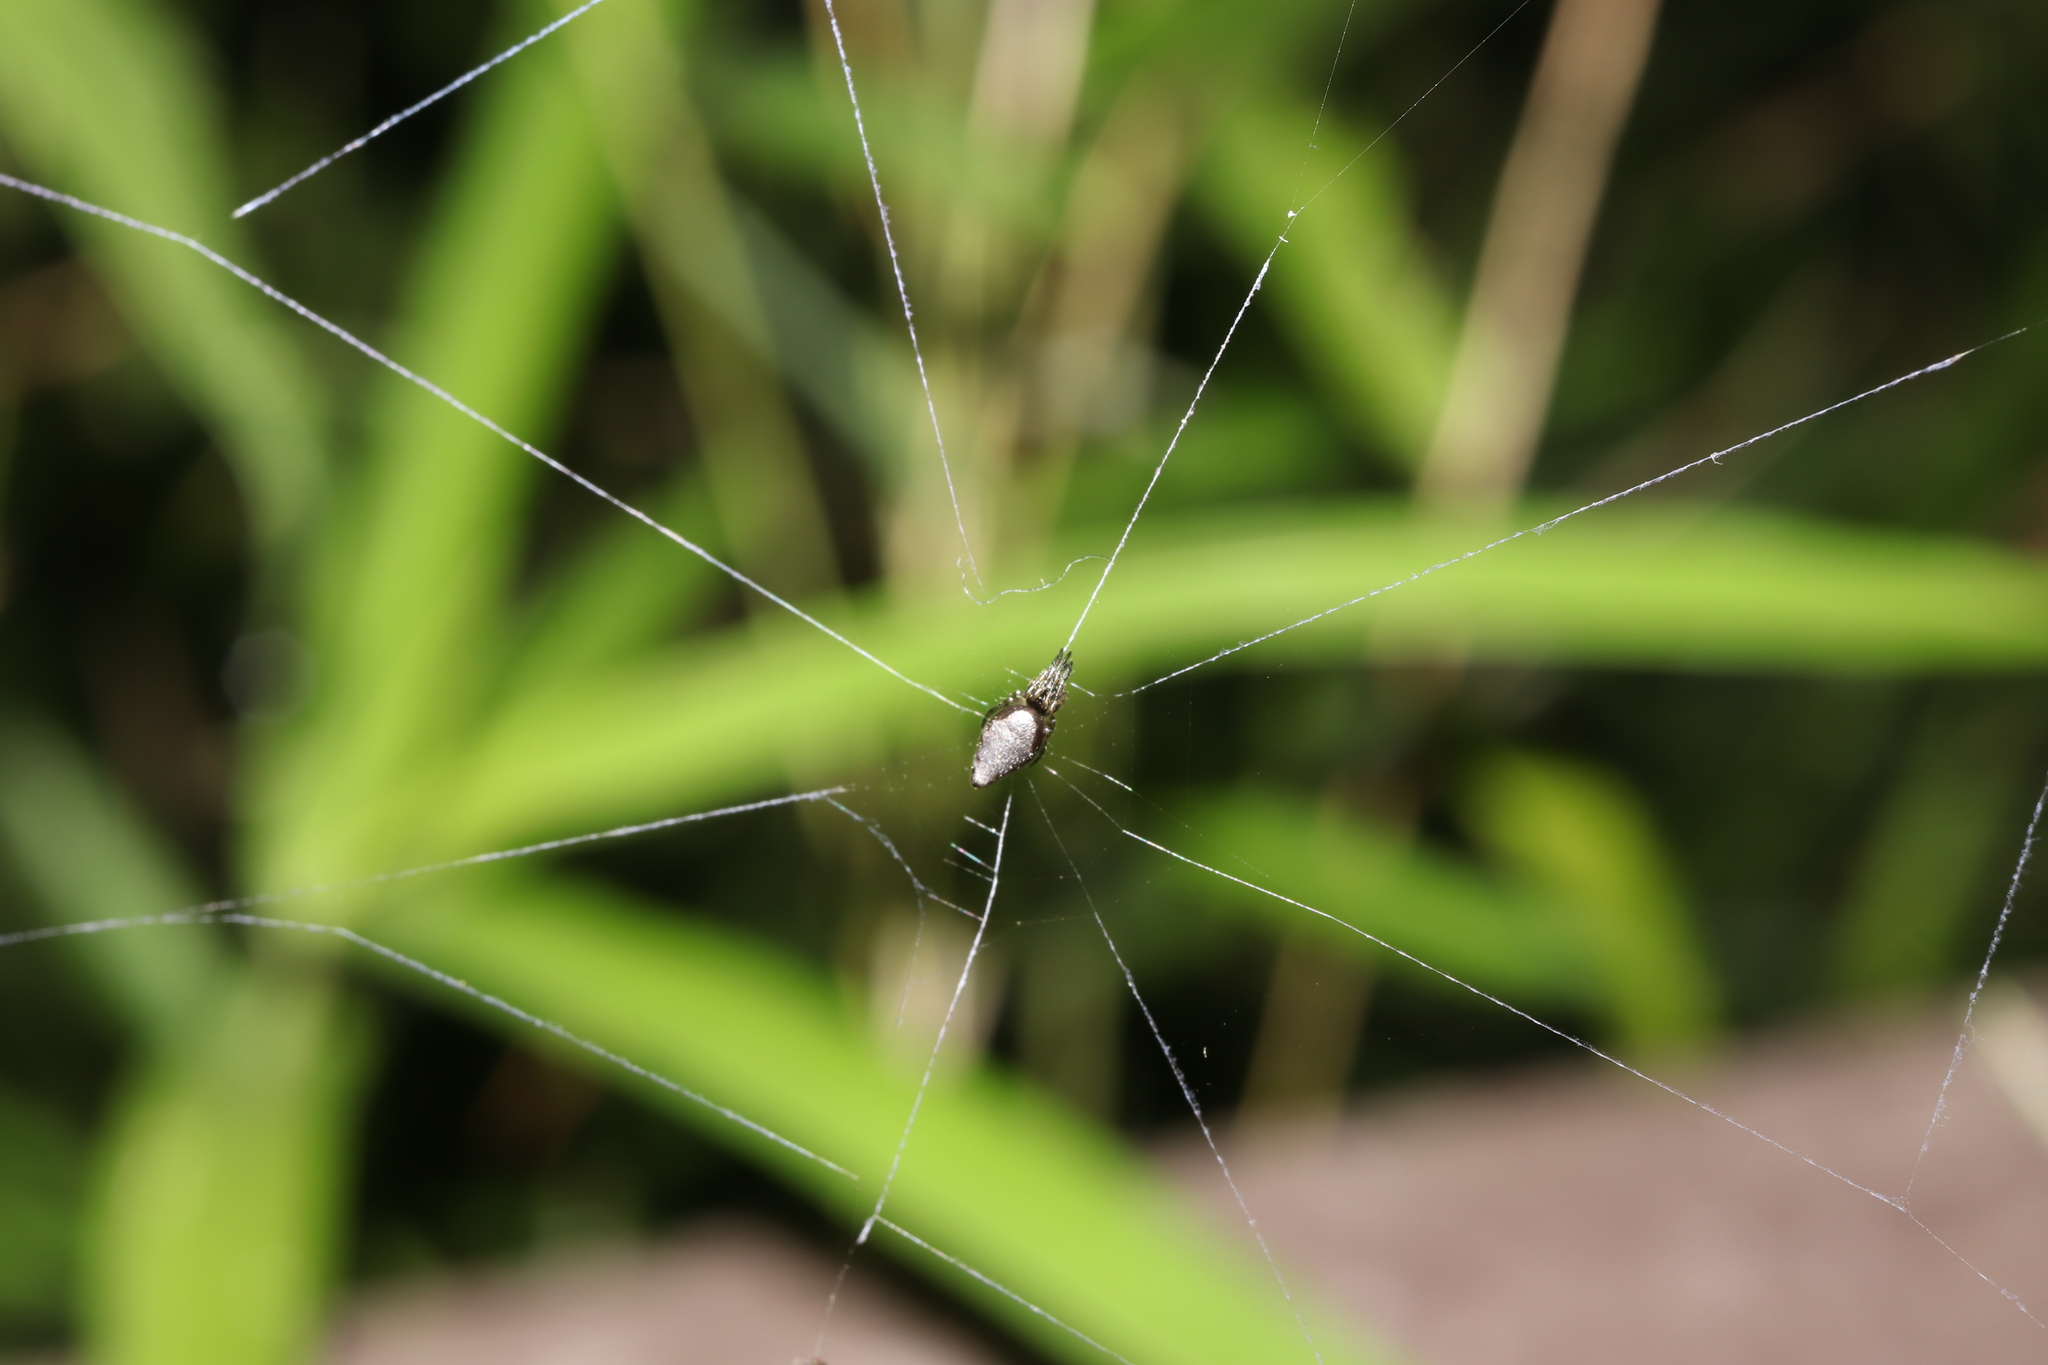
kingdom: Animalia
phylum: Arthropoda
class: Arachnida
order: Araneae
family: Araneidae
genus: Cyclosa
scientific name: Cyclosa argenteoalba
